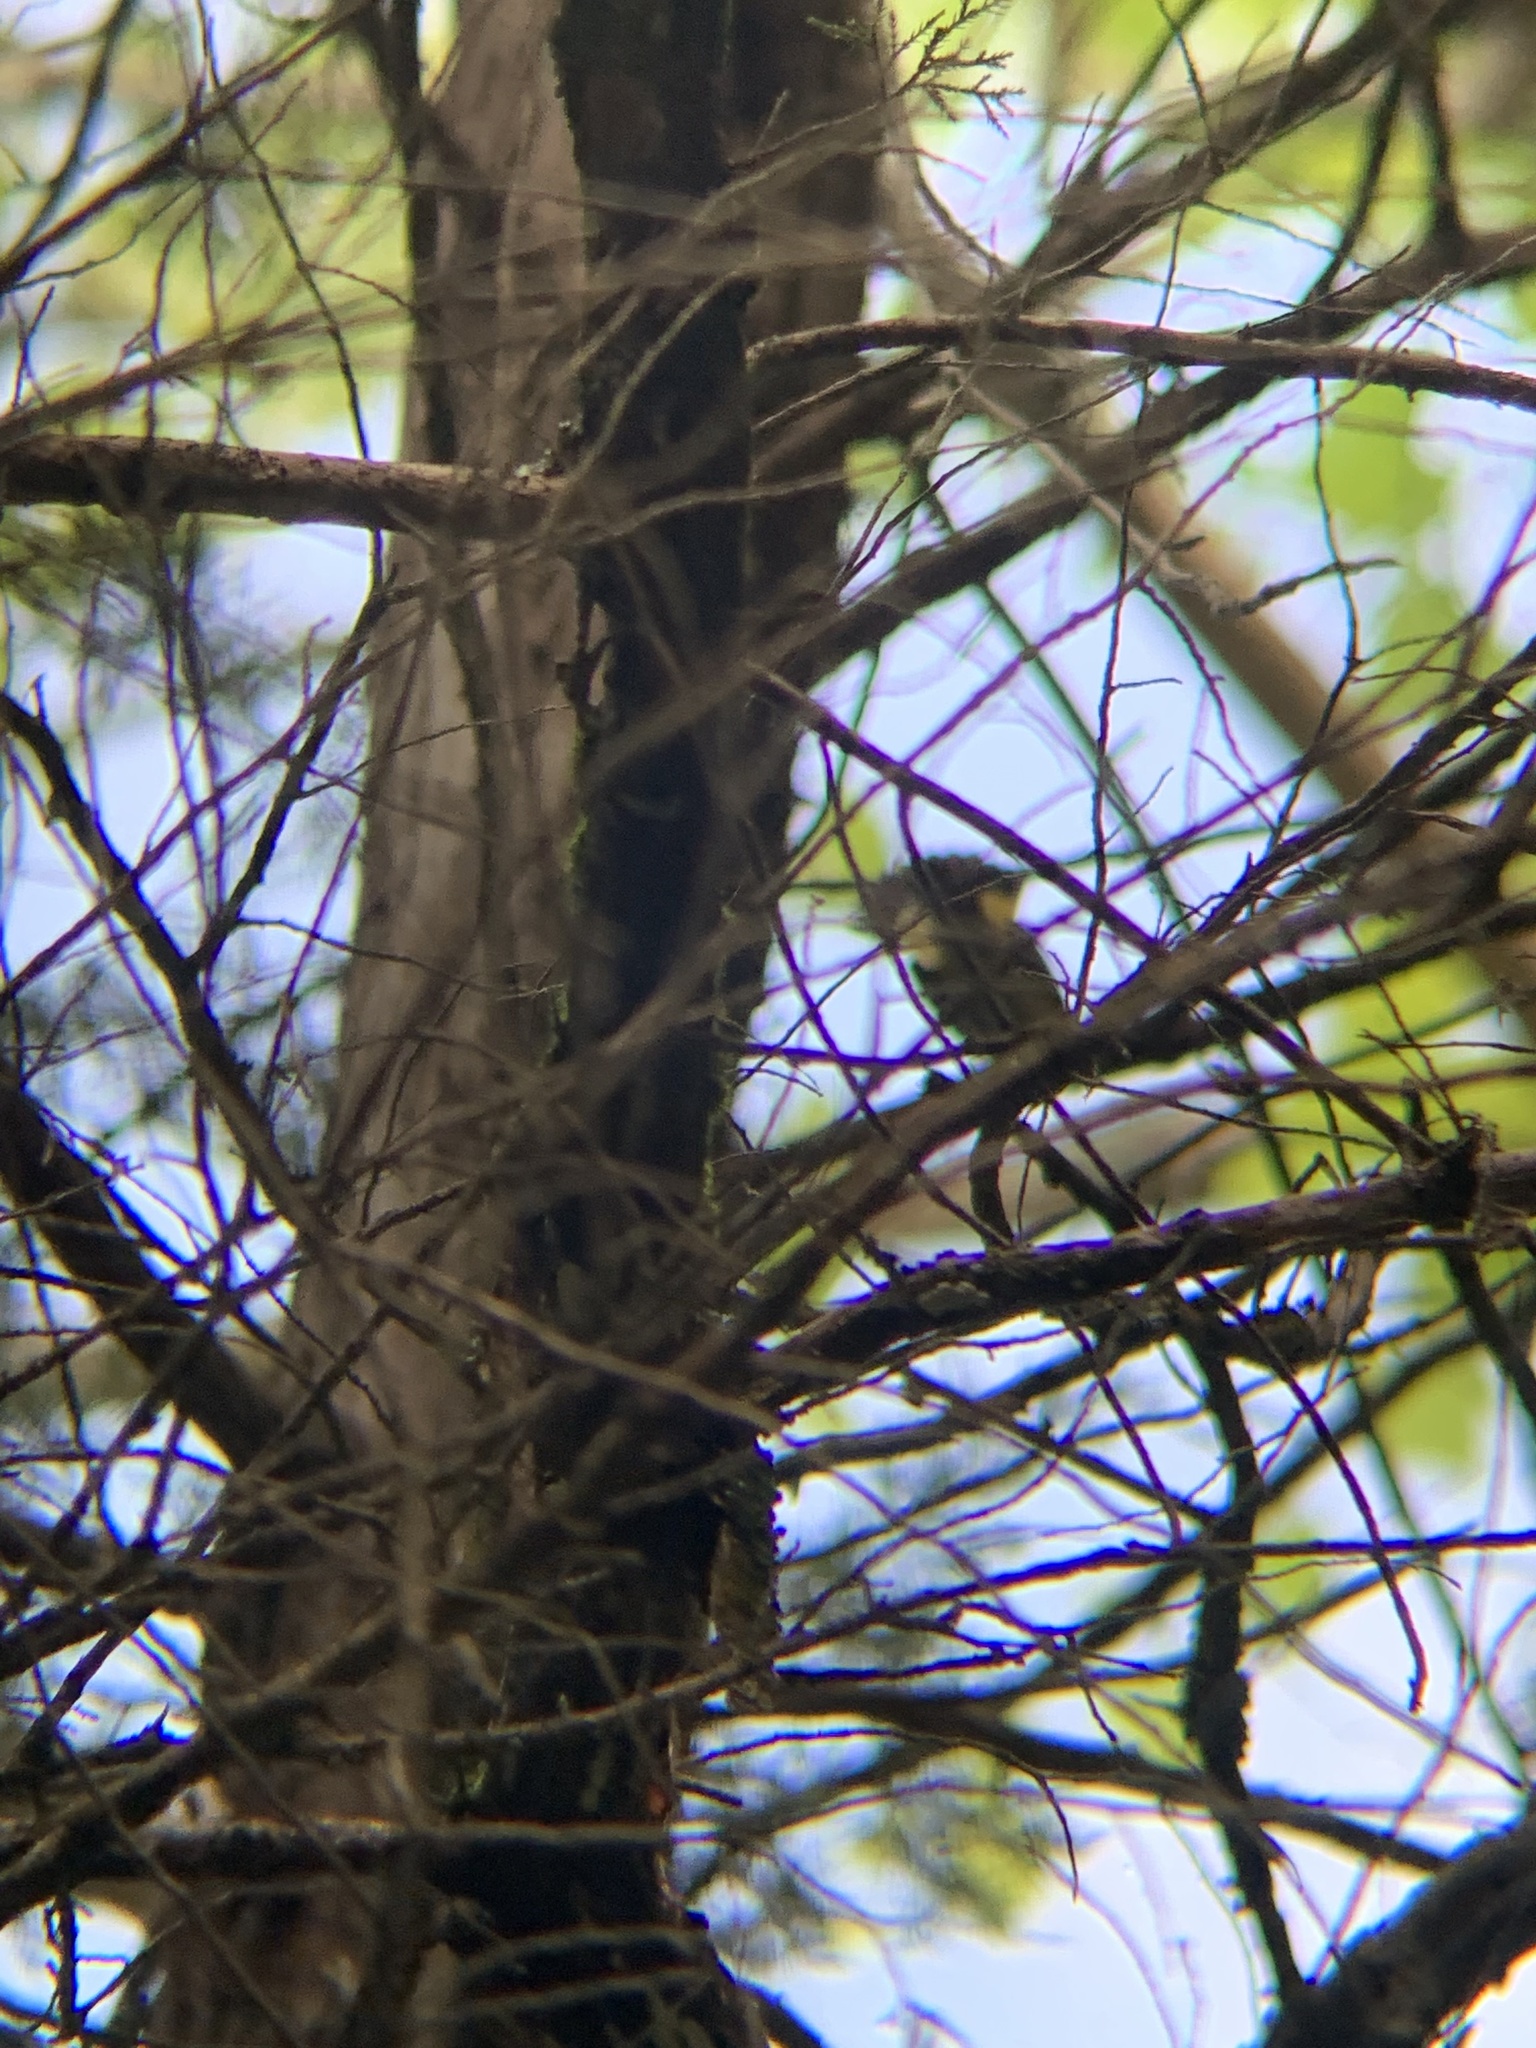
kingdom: Animalia
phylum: Chordata
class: Aves
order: Passeriformes
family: Parulidae
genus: Setophaga
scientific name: Setophaga ruticilla
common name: American redstart
